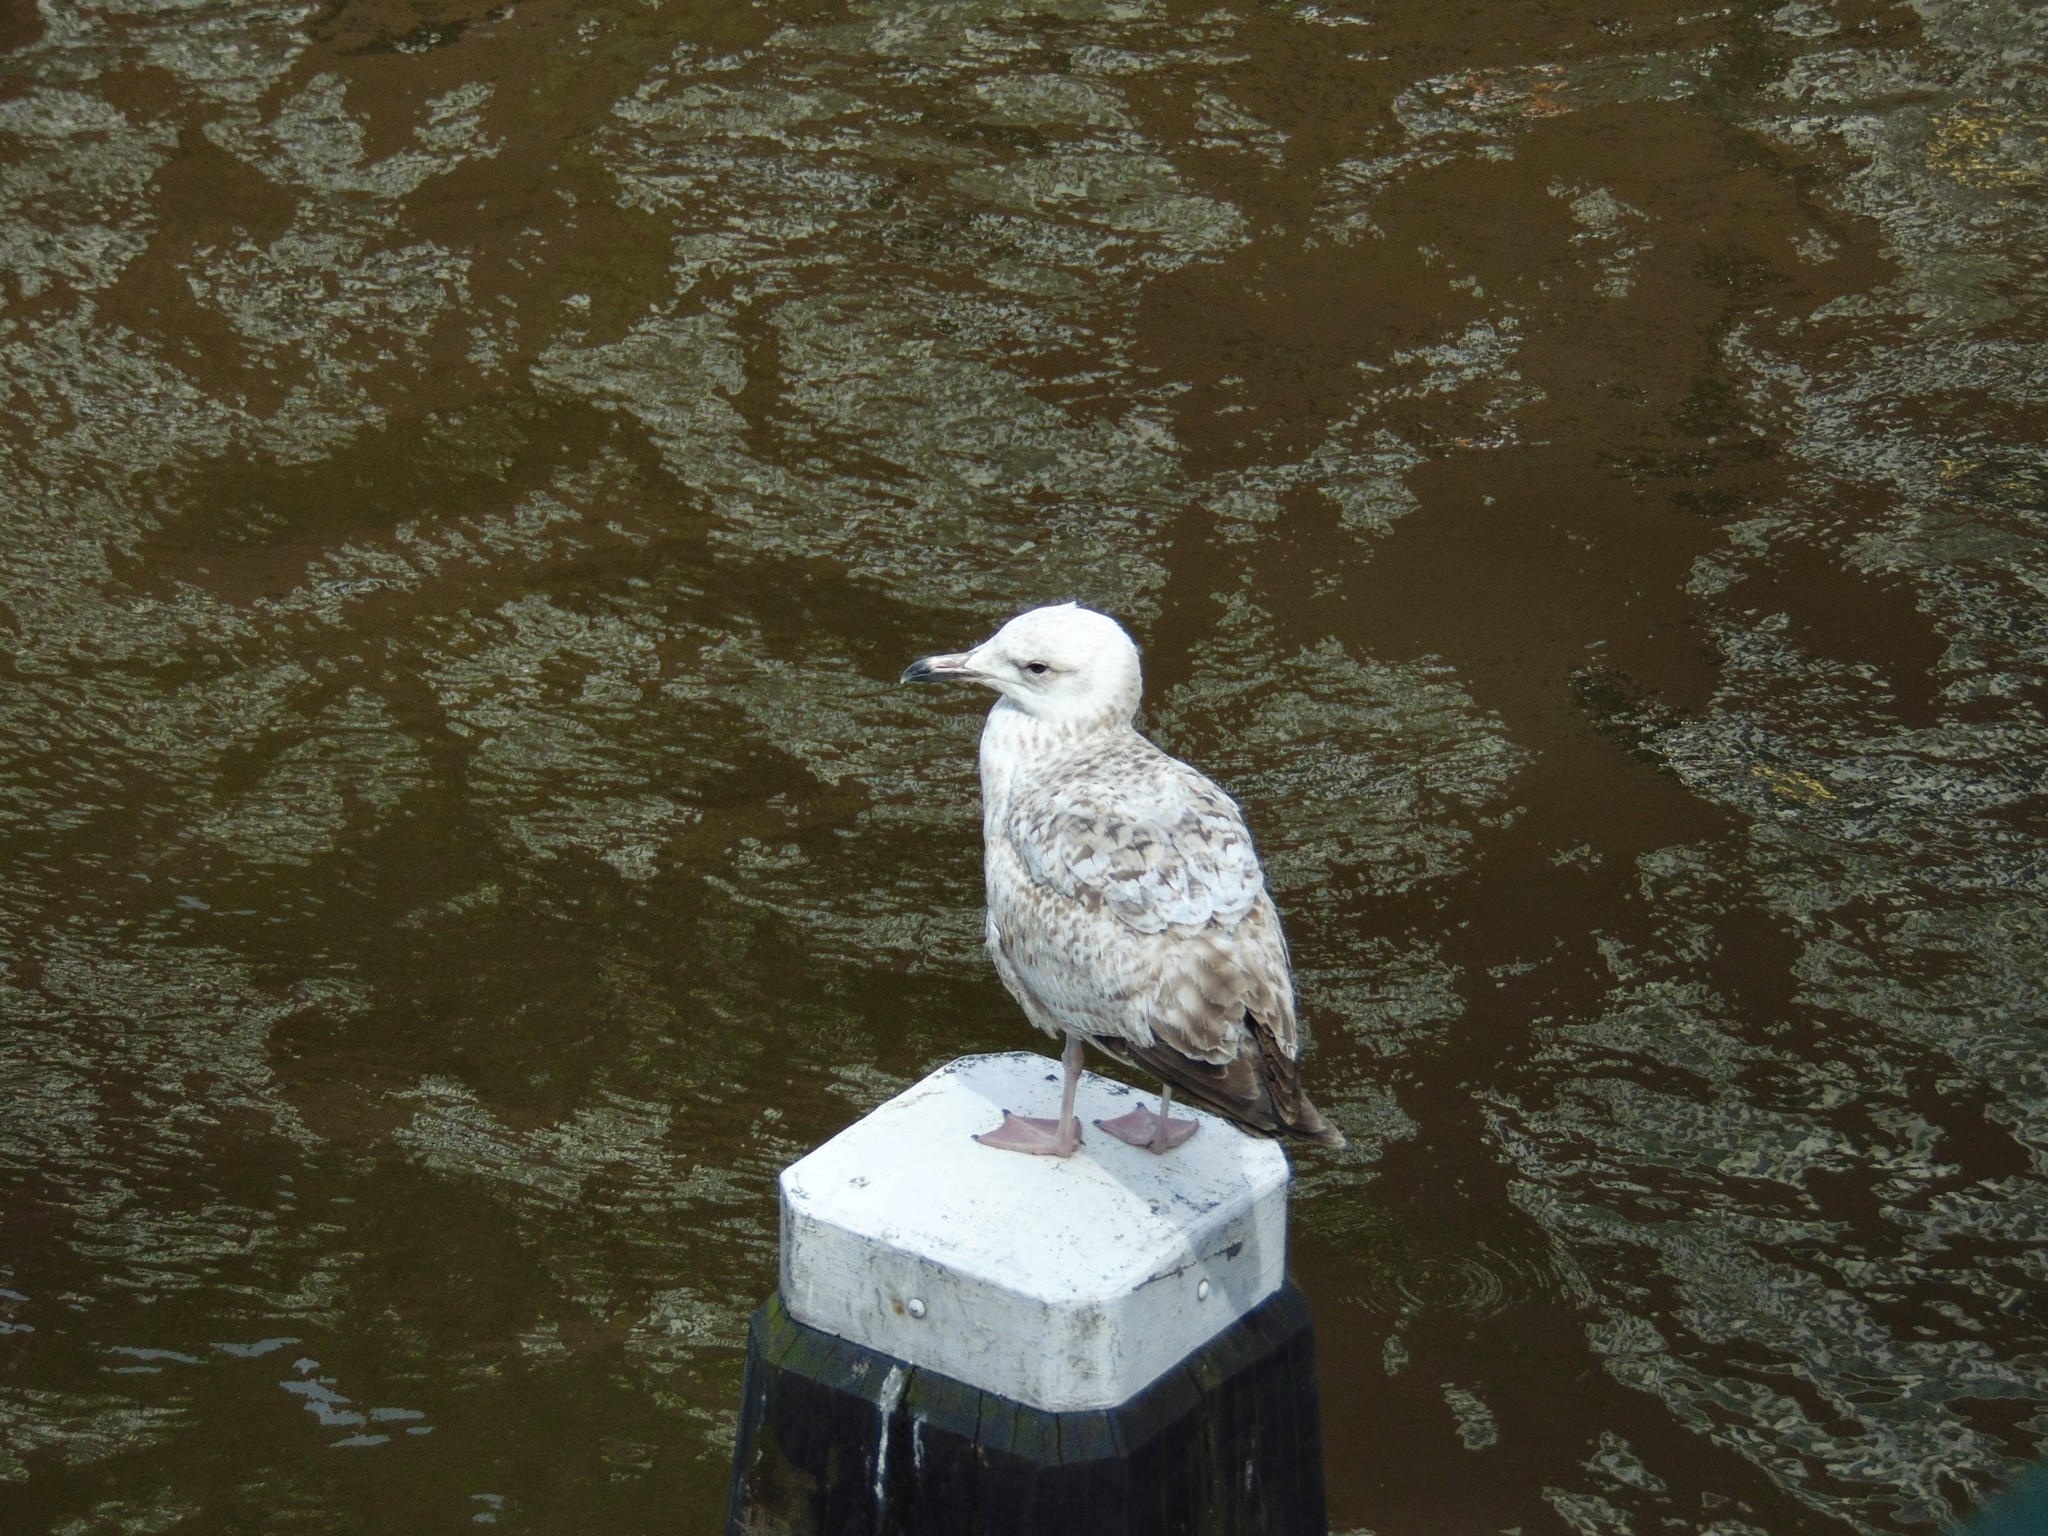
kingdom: Animalia
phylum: Chordata
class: Aves
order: Charadriiformes
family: Laridae
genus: Larus
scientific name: Larus argentatus
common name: Herring gull
